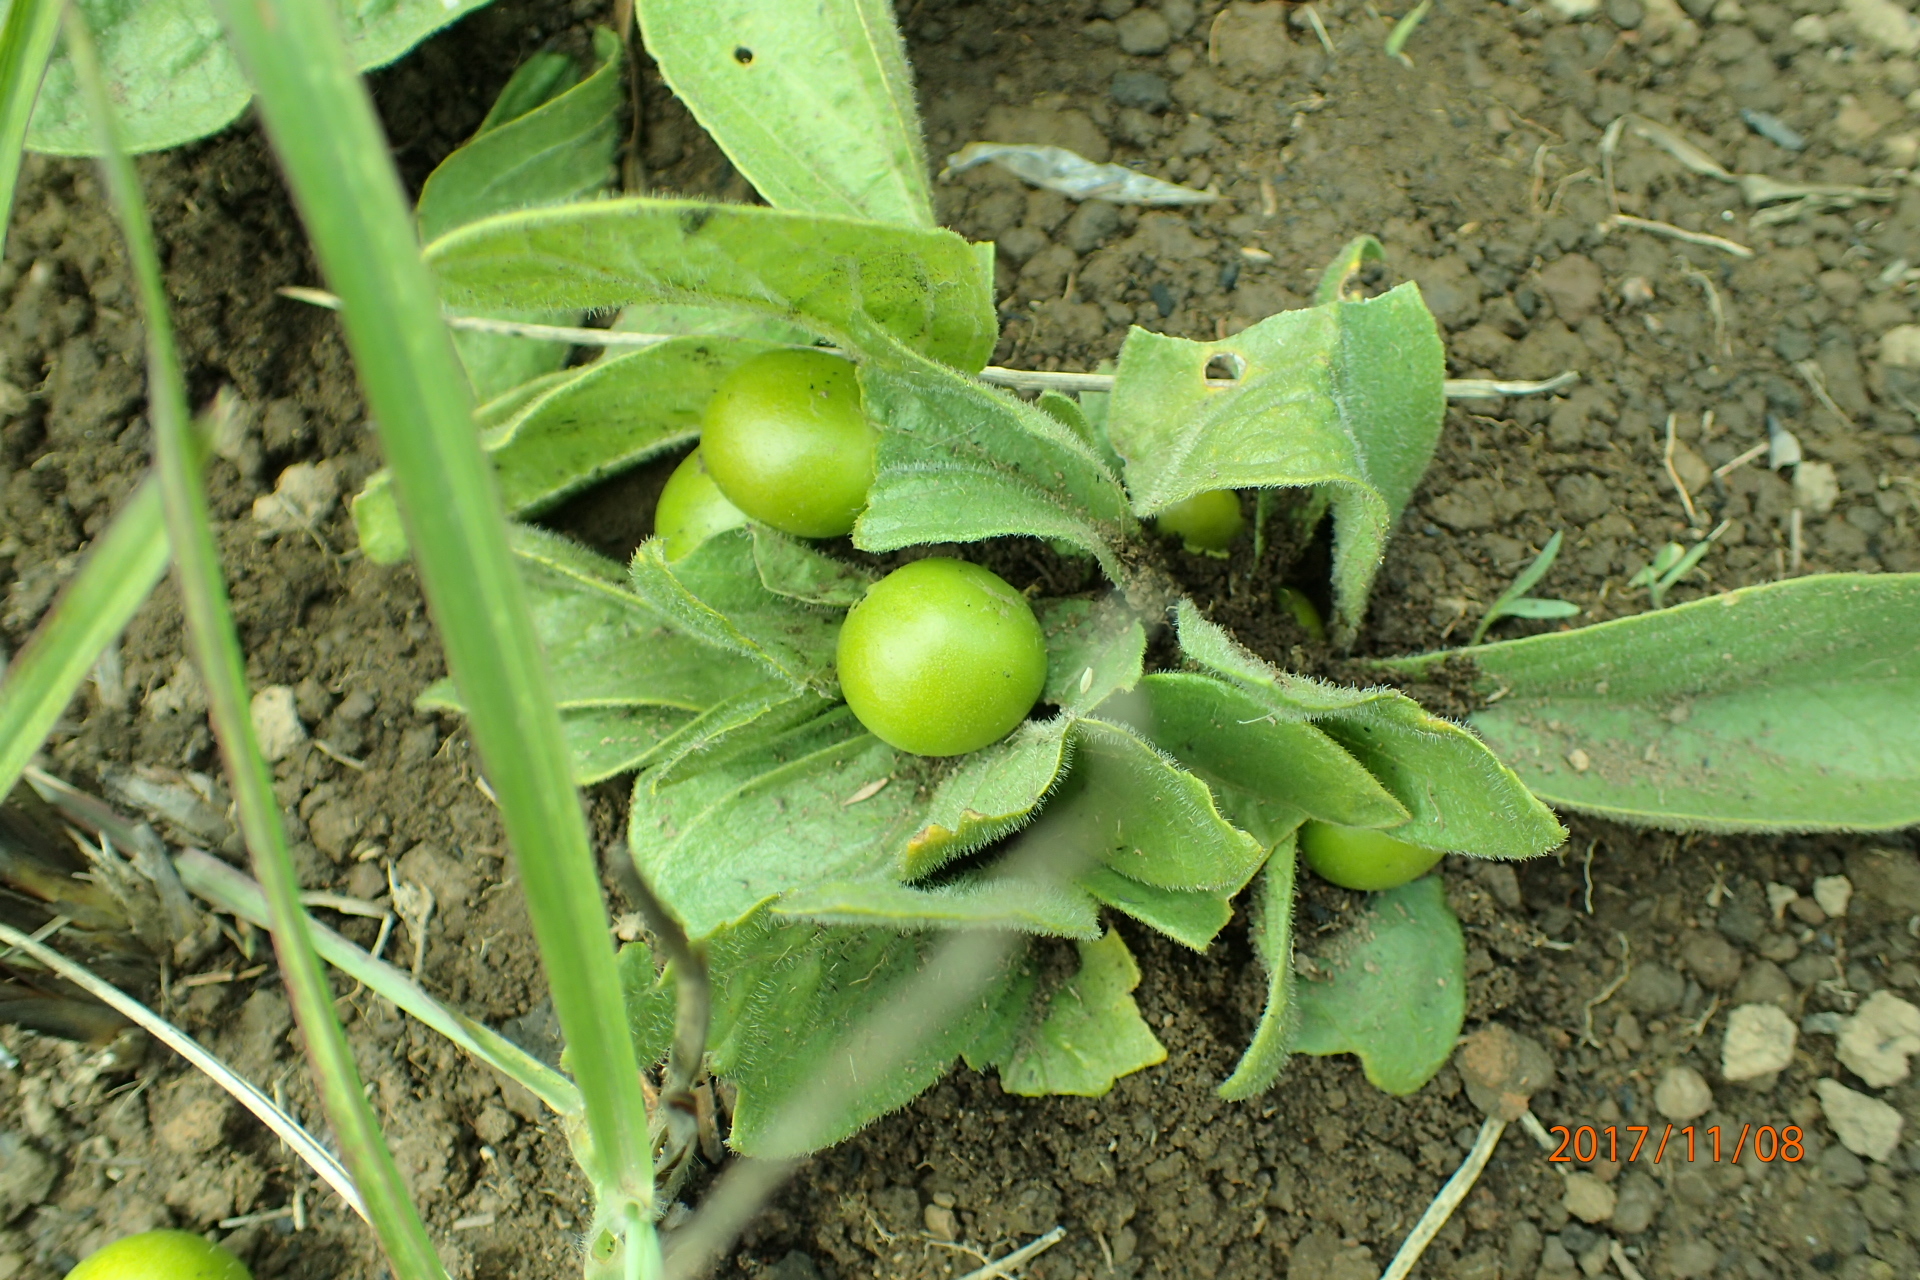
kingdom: Plantae
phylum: Tracheophyta
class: Magnoliopsida
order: Gentianales
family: Rubiaceae
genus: Bridsonia
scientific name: Bridsonia chamaedendrum
